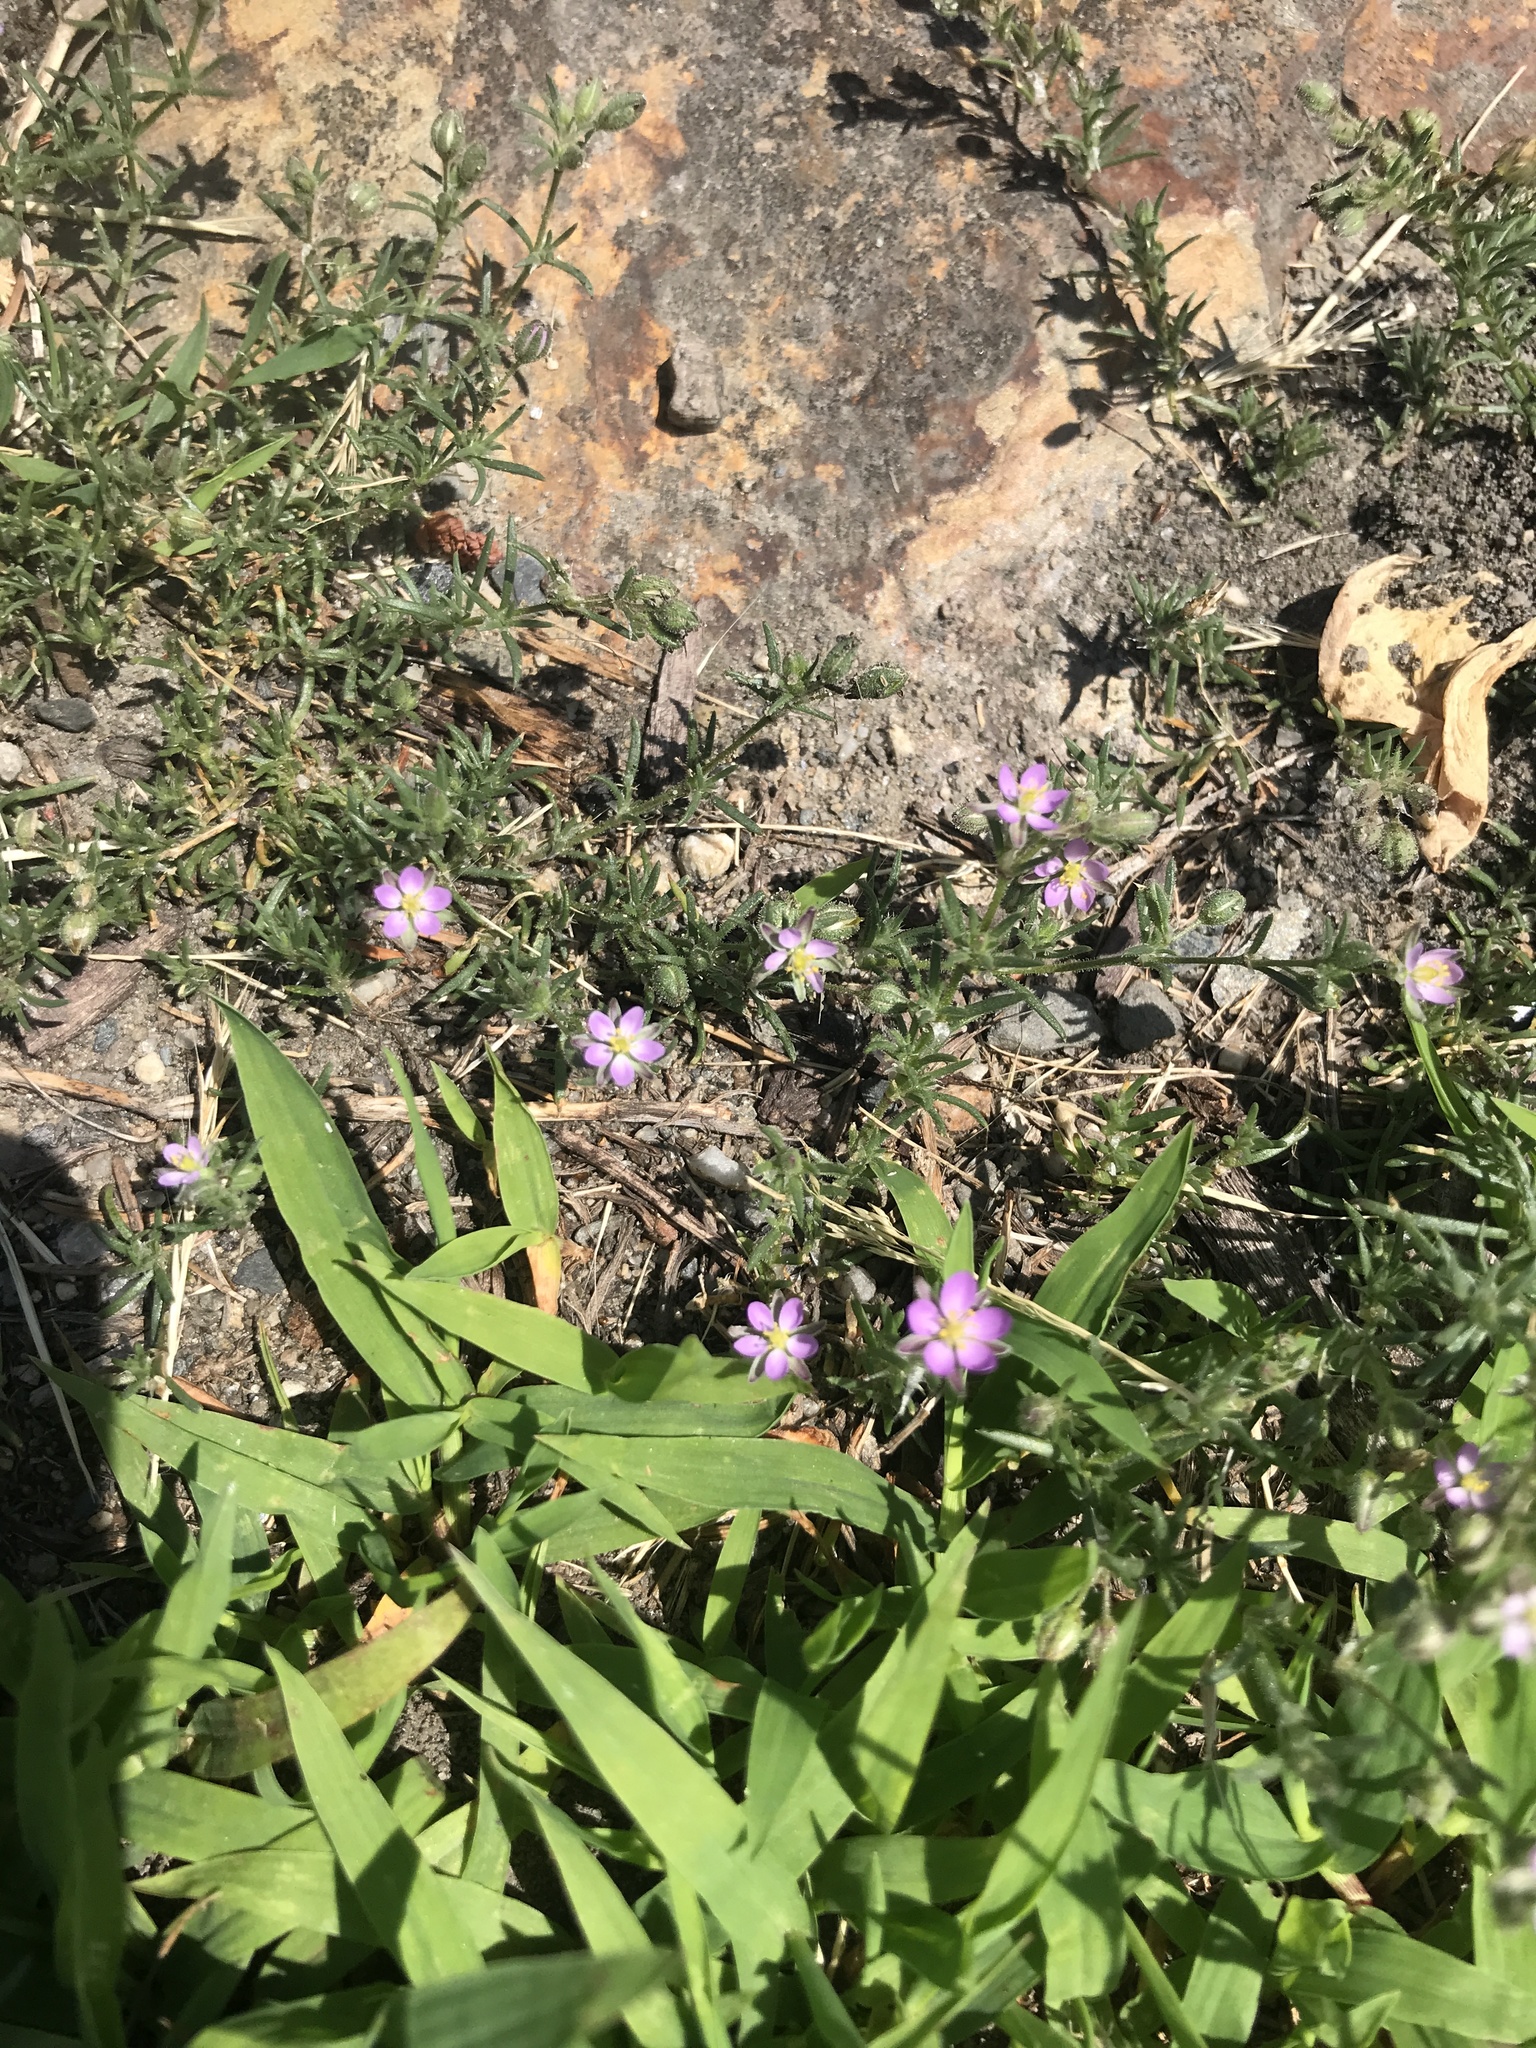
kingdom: Plantae
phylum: Tracheophyta
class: Magnoliopsida
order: Caryophyllales
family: Caryophyllaceae
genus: Spergularia
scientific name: Spergularia rubra
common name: Red sand-spurrey
